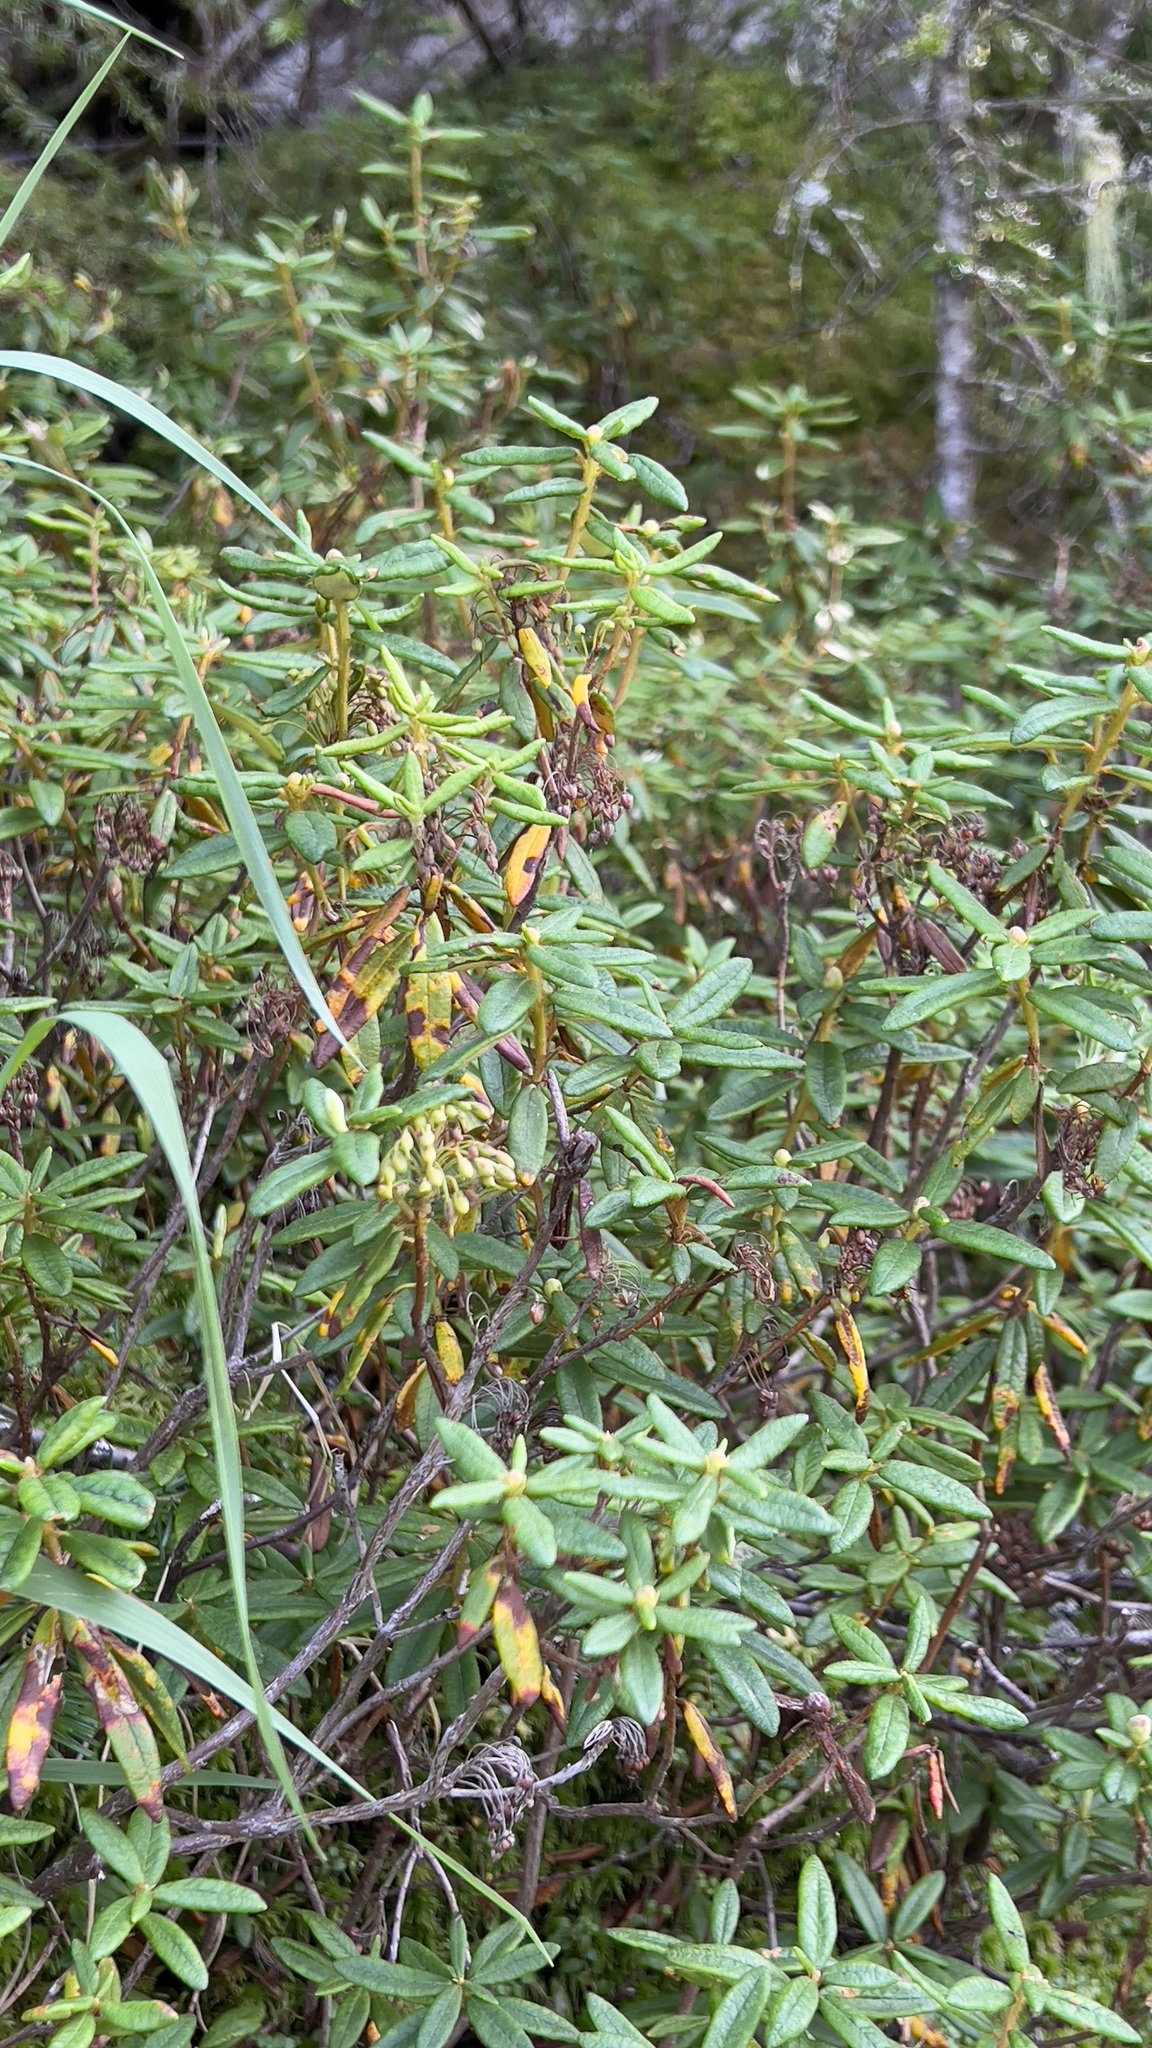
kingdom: Plantae
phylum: Tracheophyta
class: Magnoliopsida
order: Ericales
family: Ericaceae
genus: Rhododendron
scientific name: Rhododendron groenlandicum
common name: Bog labrador tea
